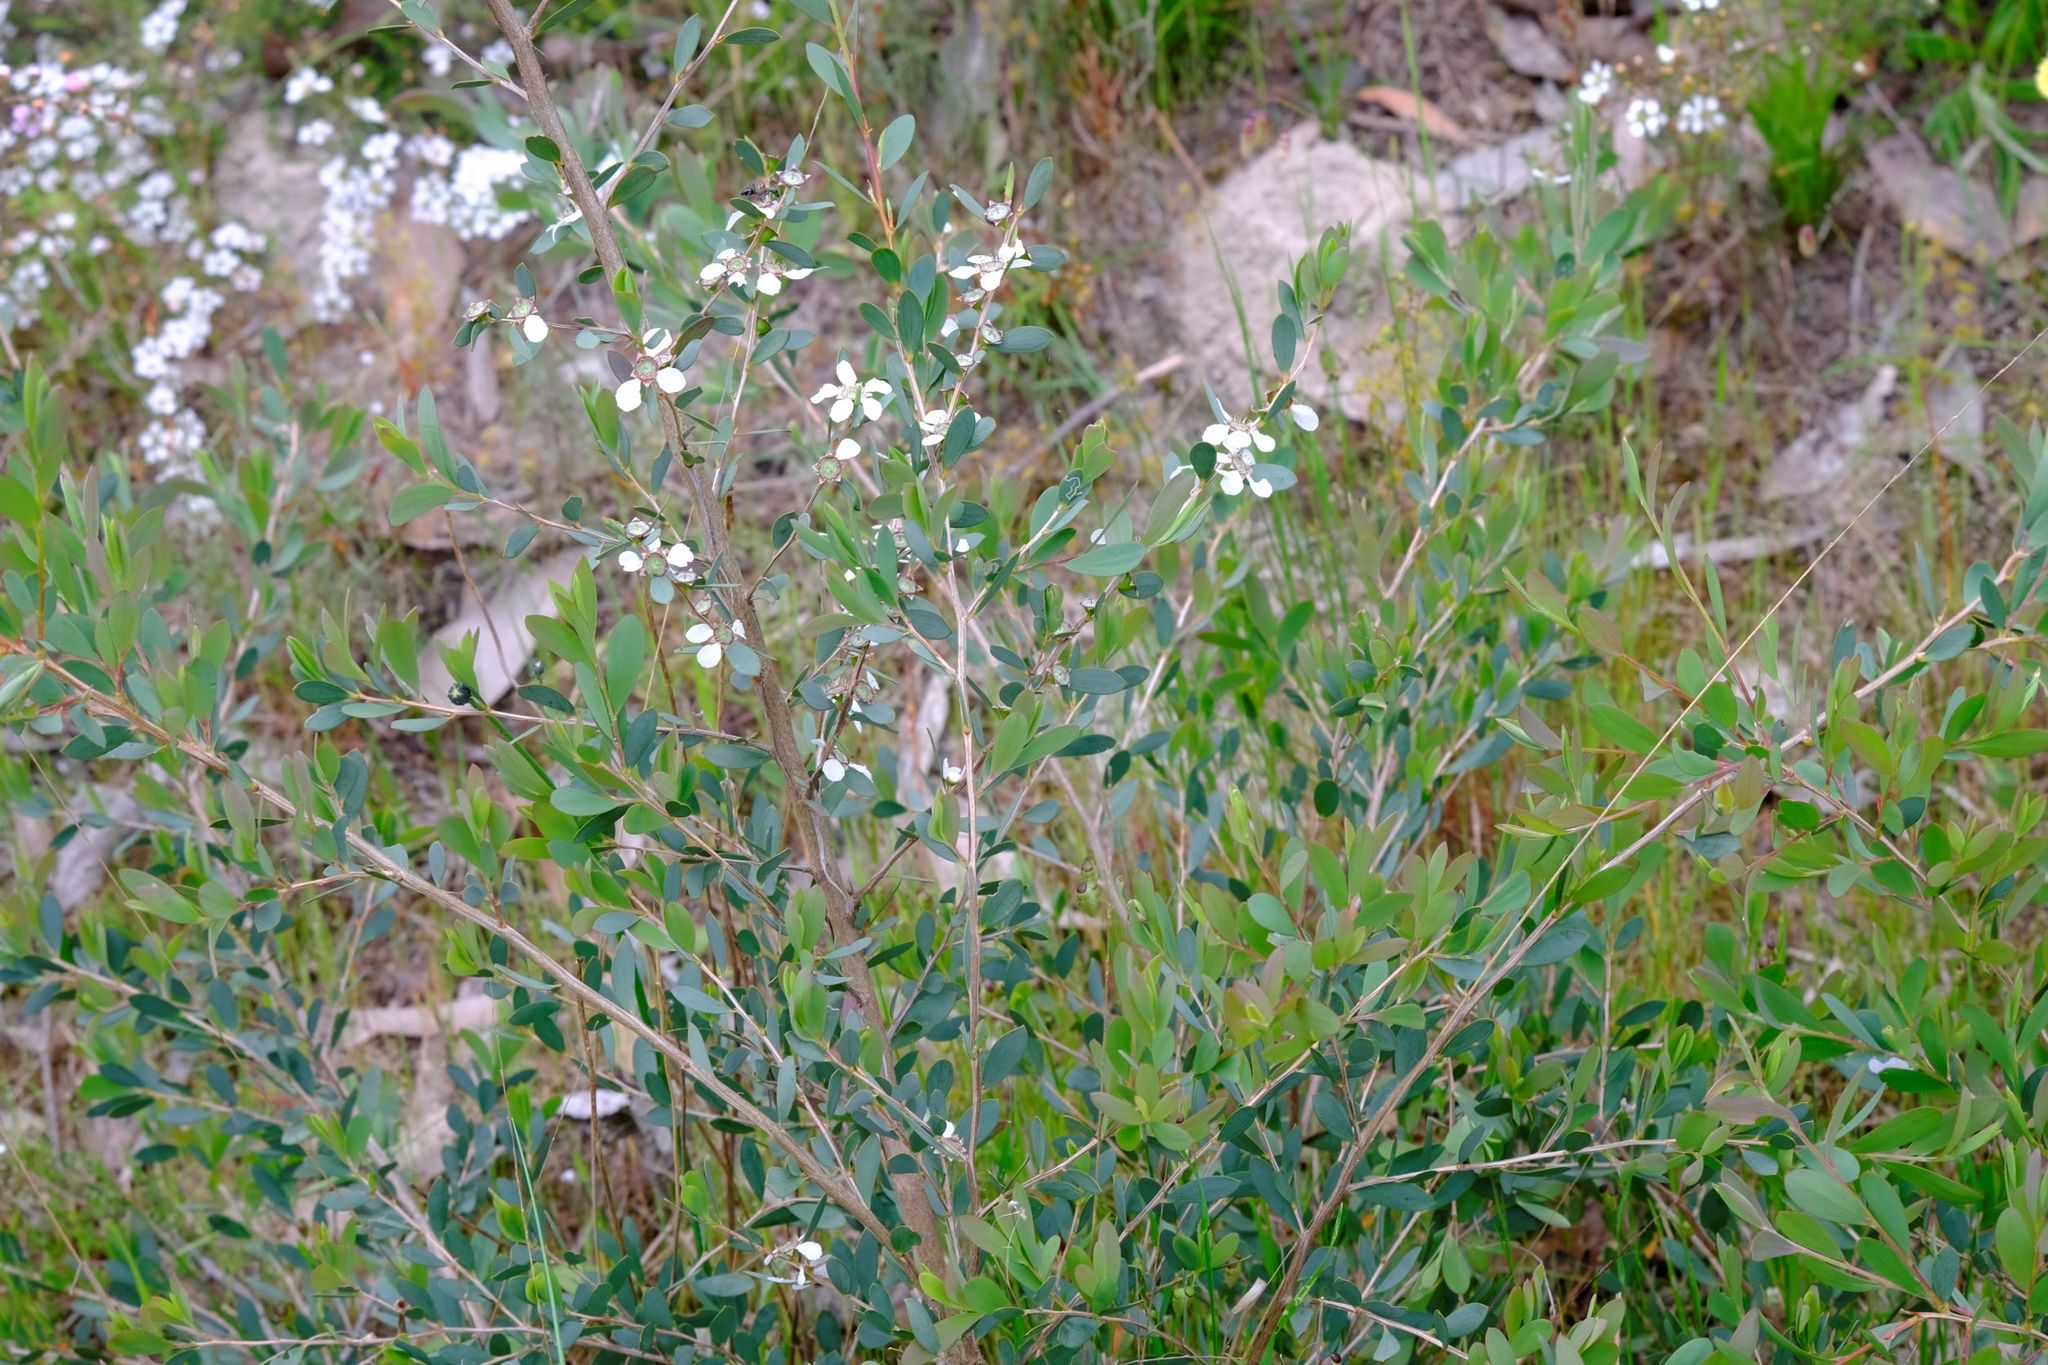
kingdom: Plantae
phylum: Tracheophyta
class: Magnoliopsida
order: Myrtales
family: Myrtaceae
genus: Leptospermum
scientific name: Leptospermum laevigatum
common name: Australian teatree
